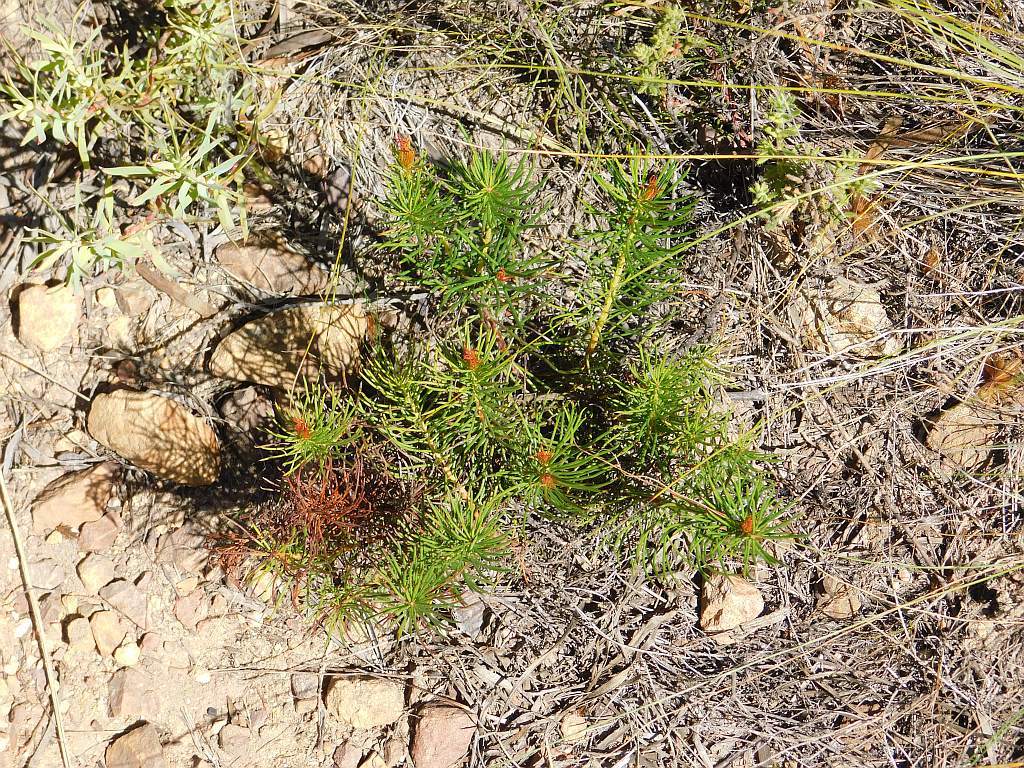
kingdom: Plantae
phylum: Tracheophyta
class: Magnoliopsida
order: Proteales
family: Proteaceae
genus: Protea
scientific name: Protea subulifolia
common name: Awl-leaf sugarbush
